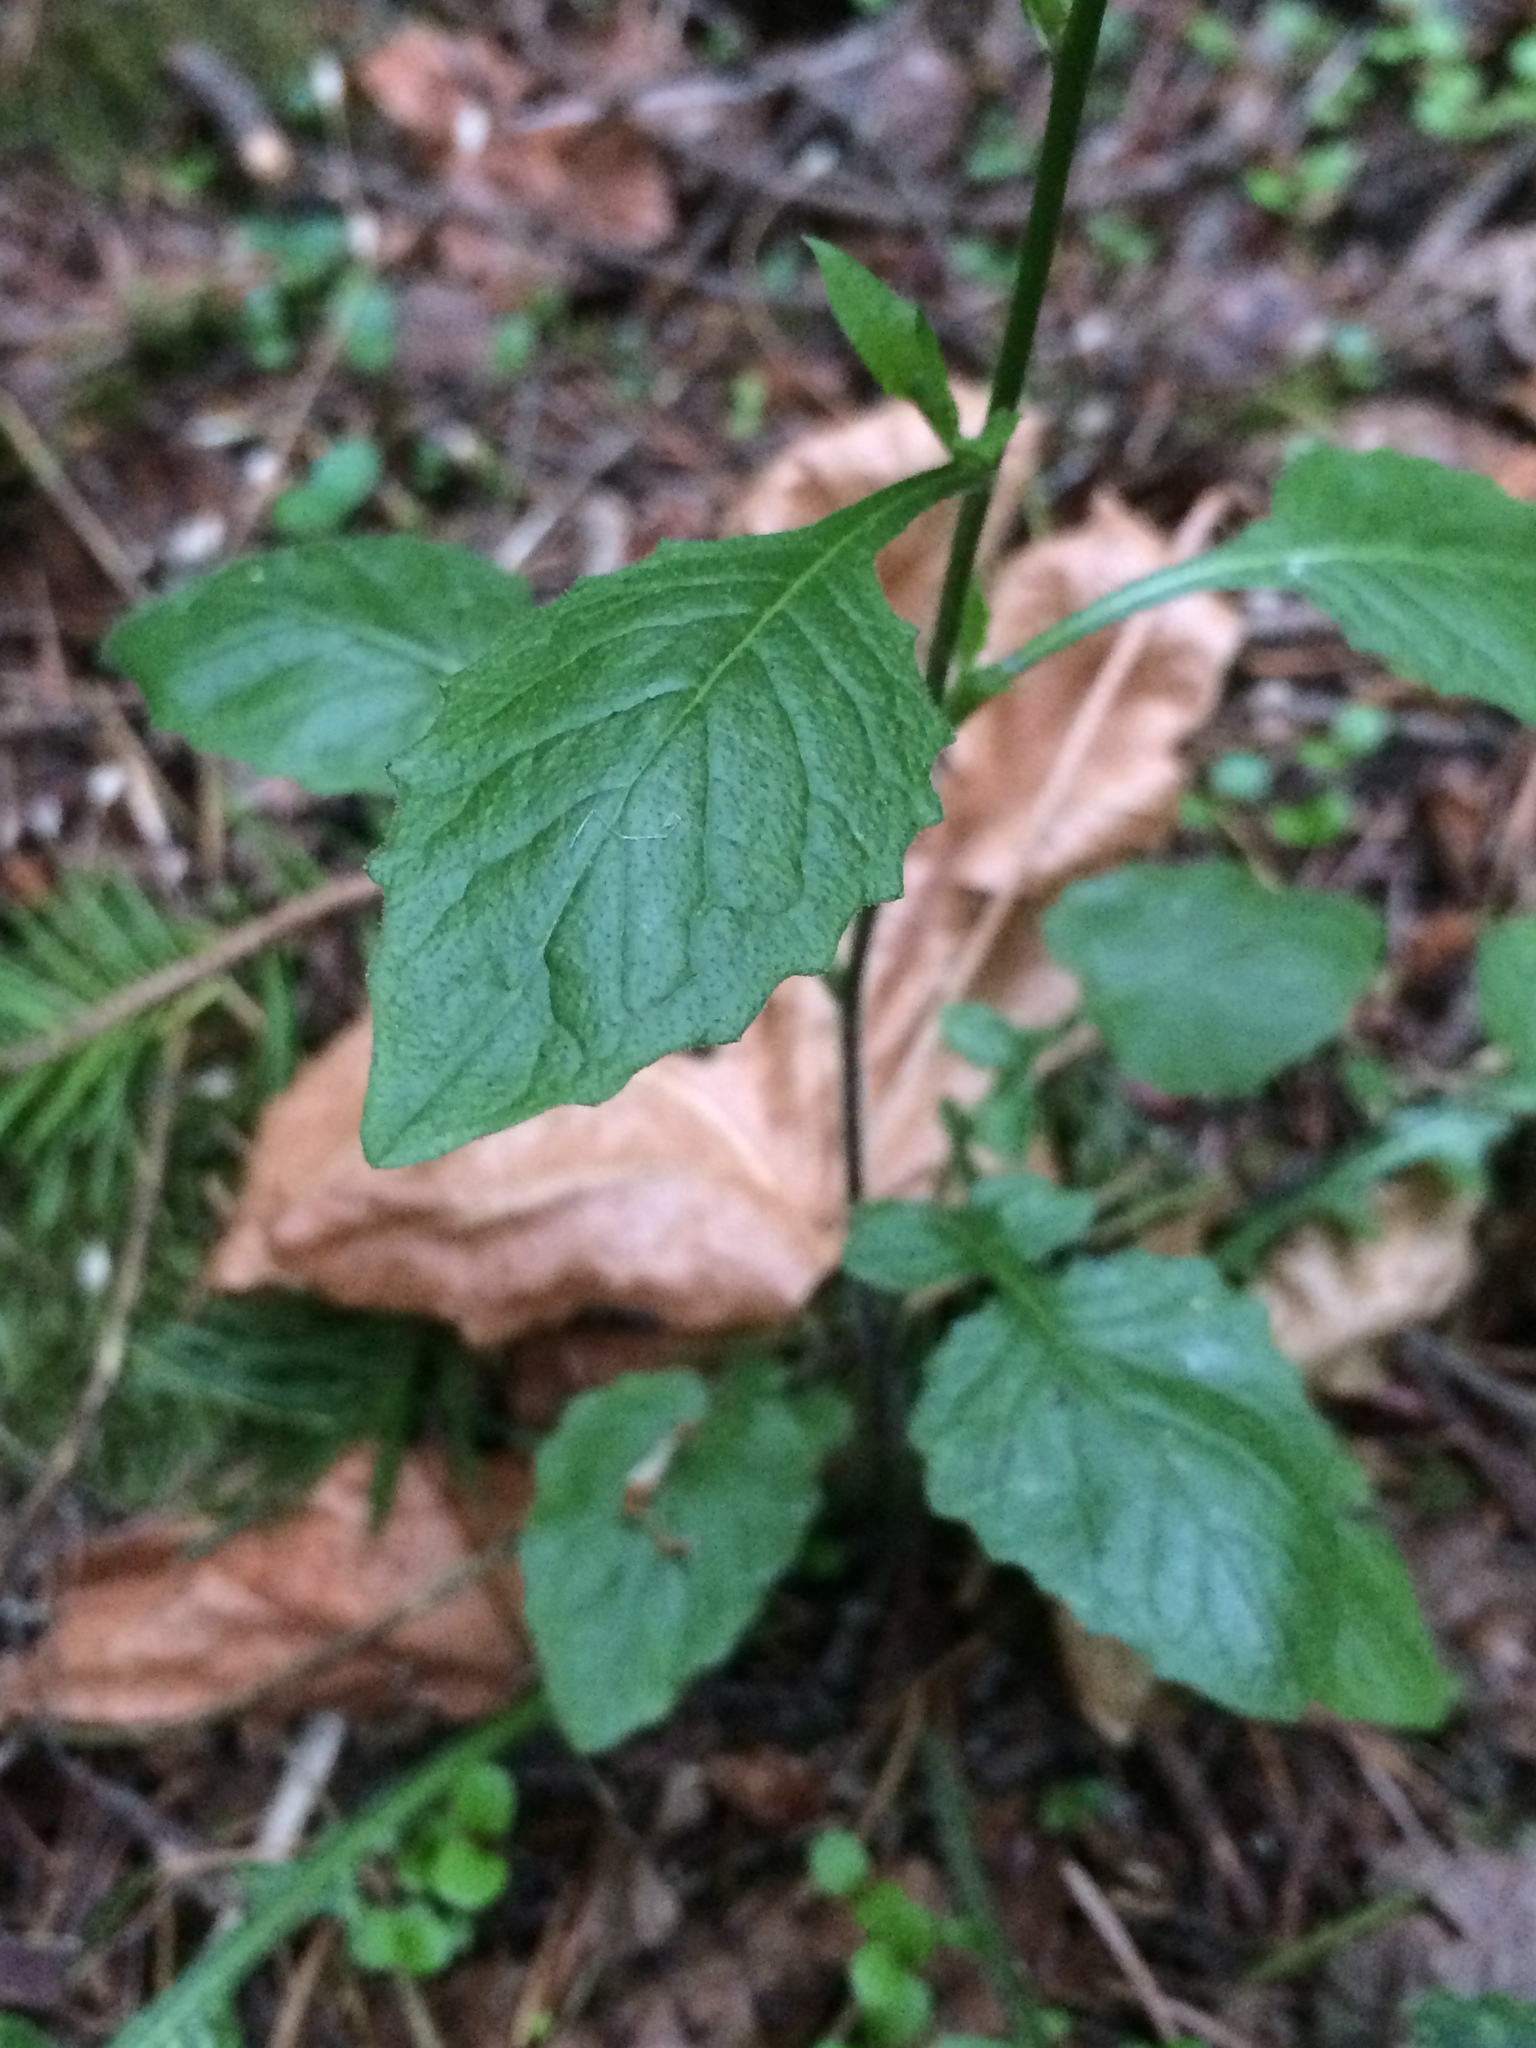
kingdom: Plantae
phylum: Tracheophyta
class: Magnoliopsida
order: Asterales
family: Asteraceae
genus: Lapsana
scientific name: Lapsana communis
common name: Nipplewort
